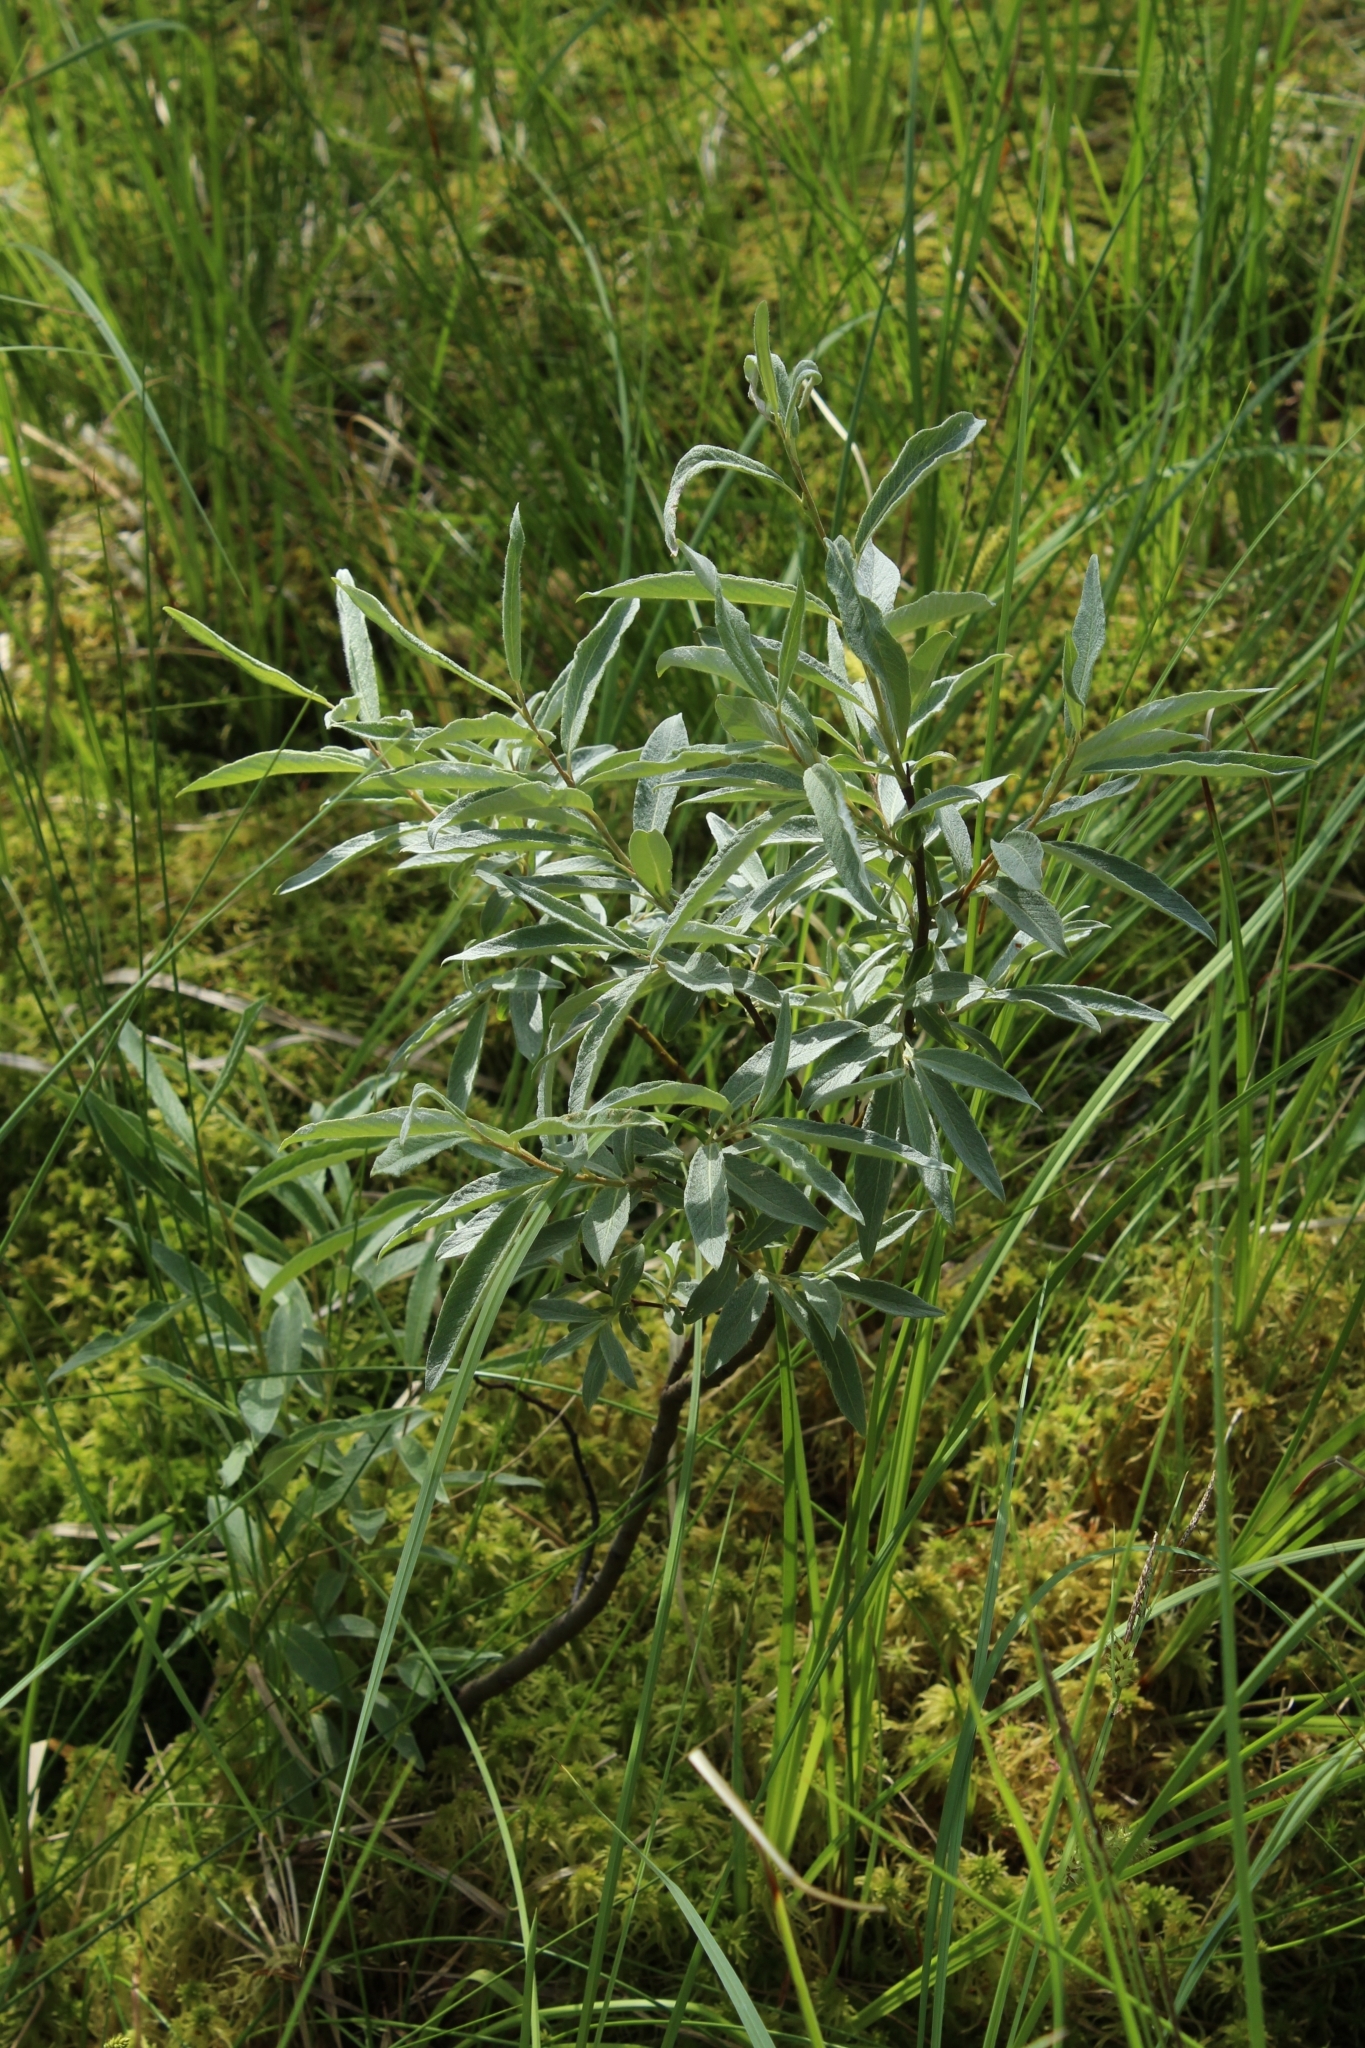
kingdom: Plantae
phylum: Tracheophyta
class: Magnoliopsida
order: Malpighiales
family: Salicaceae
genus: Salix
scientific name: Salix lapponum
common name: Downy willow
